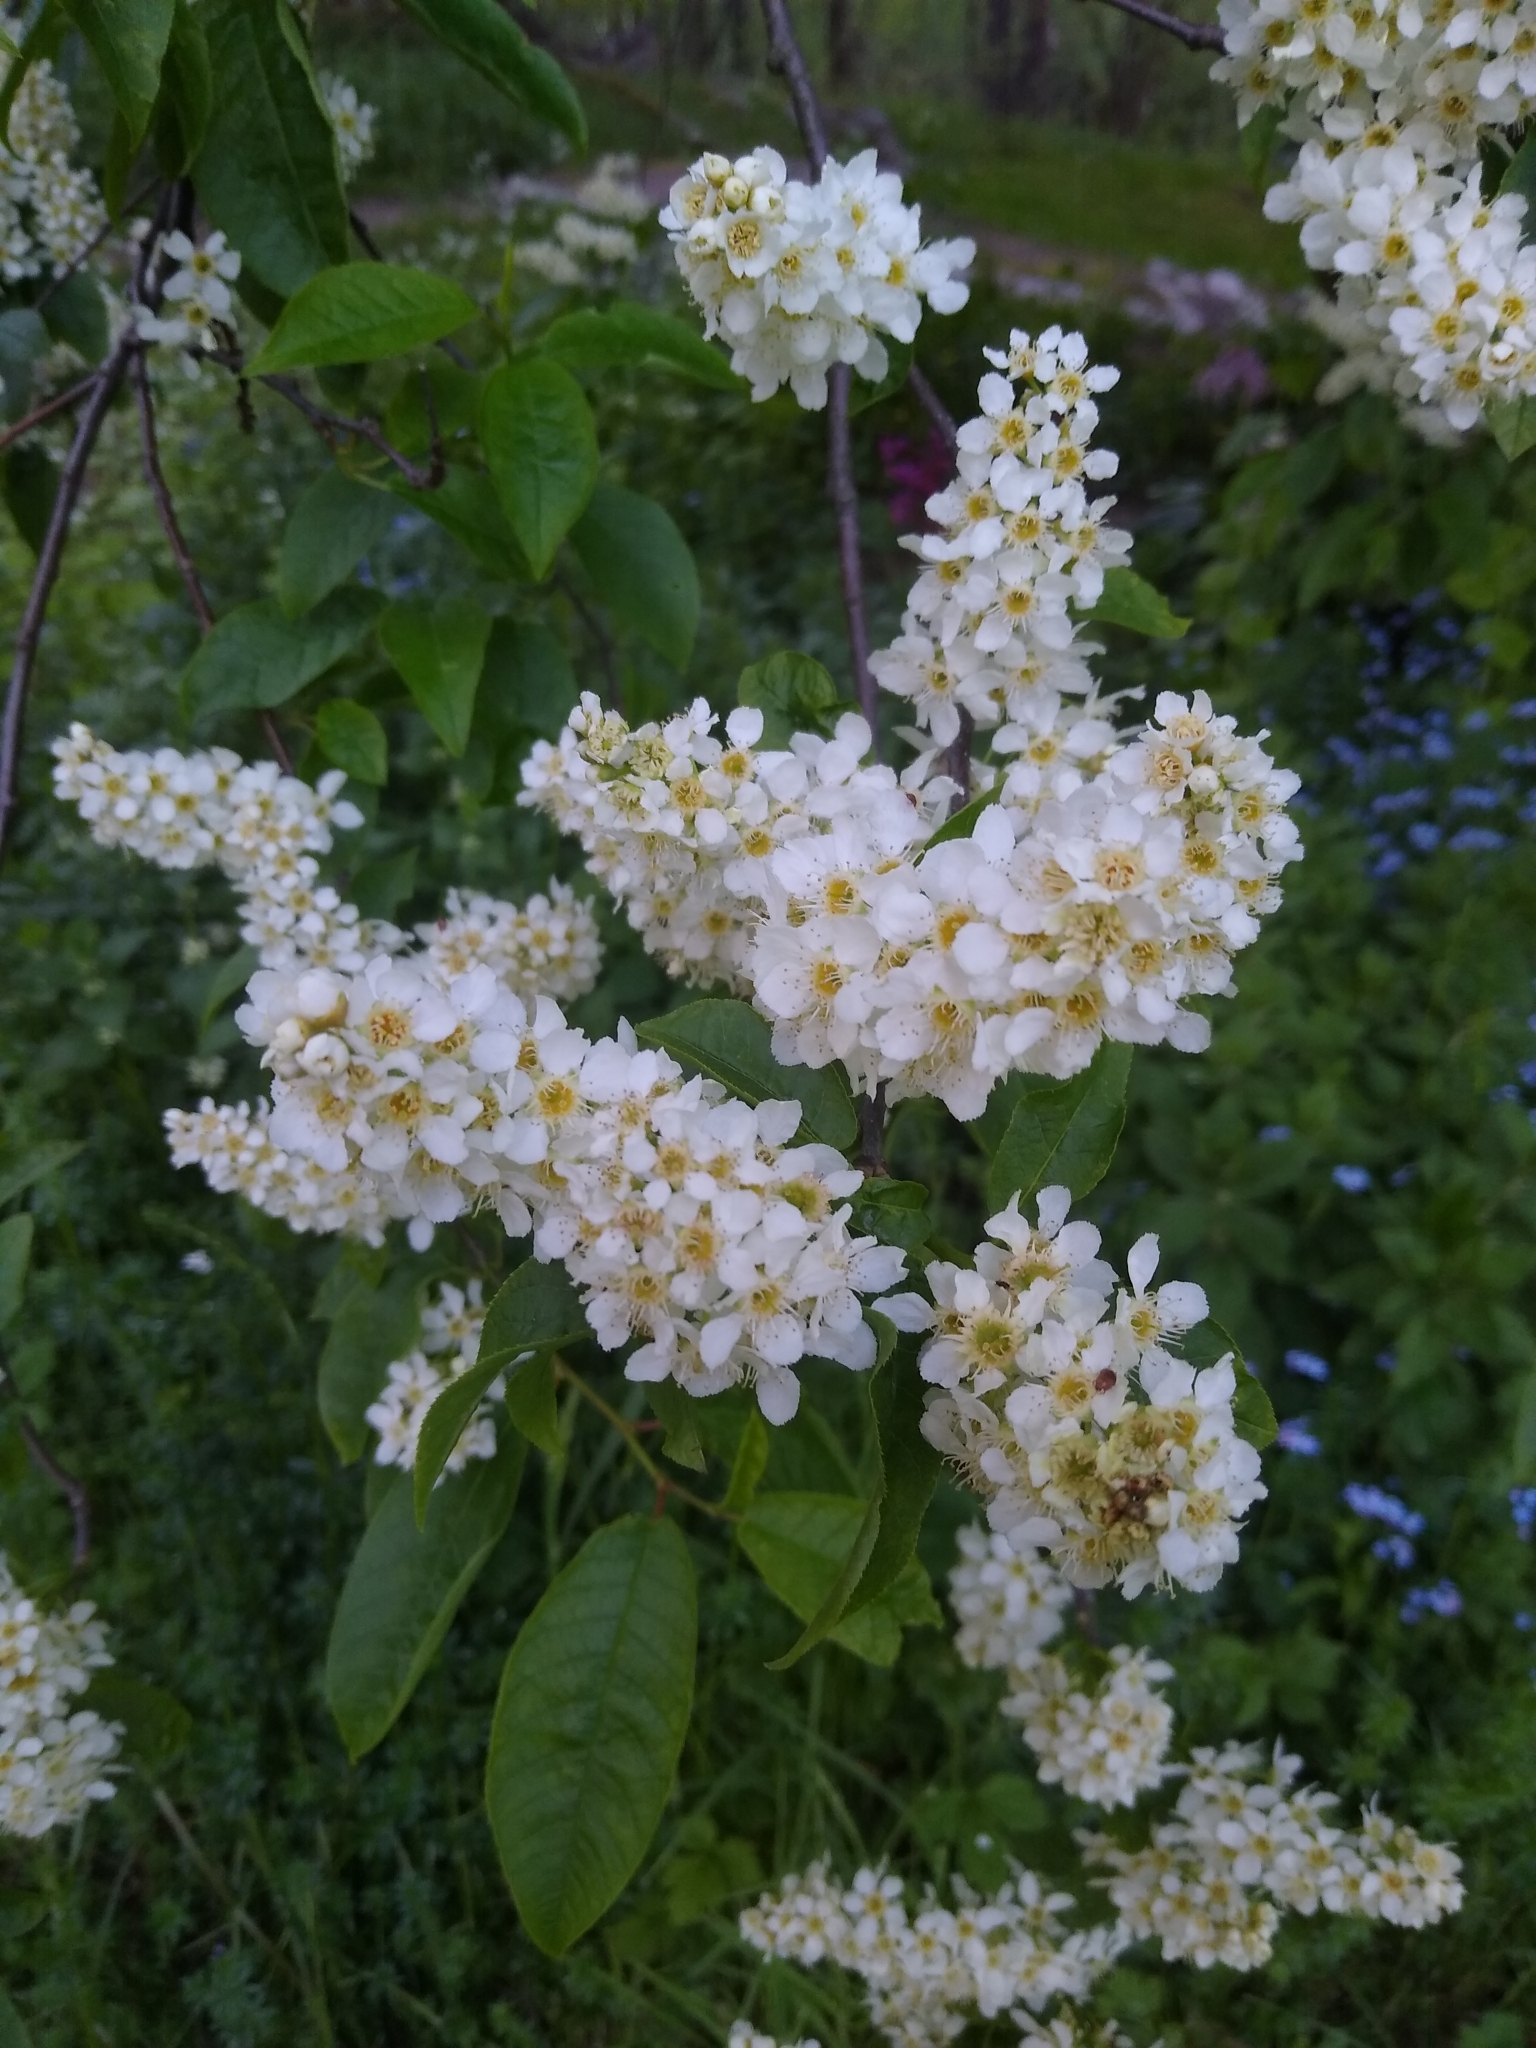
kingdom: Plantae
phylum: Tracheophyta
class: Magnoliopsida
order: Rosales
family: Rosaceae
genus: Prunus
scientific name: Prunus padus
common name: Bird cherry
